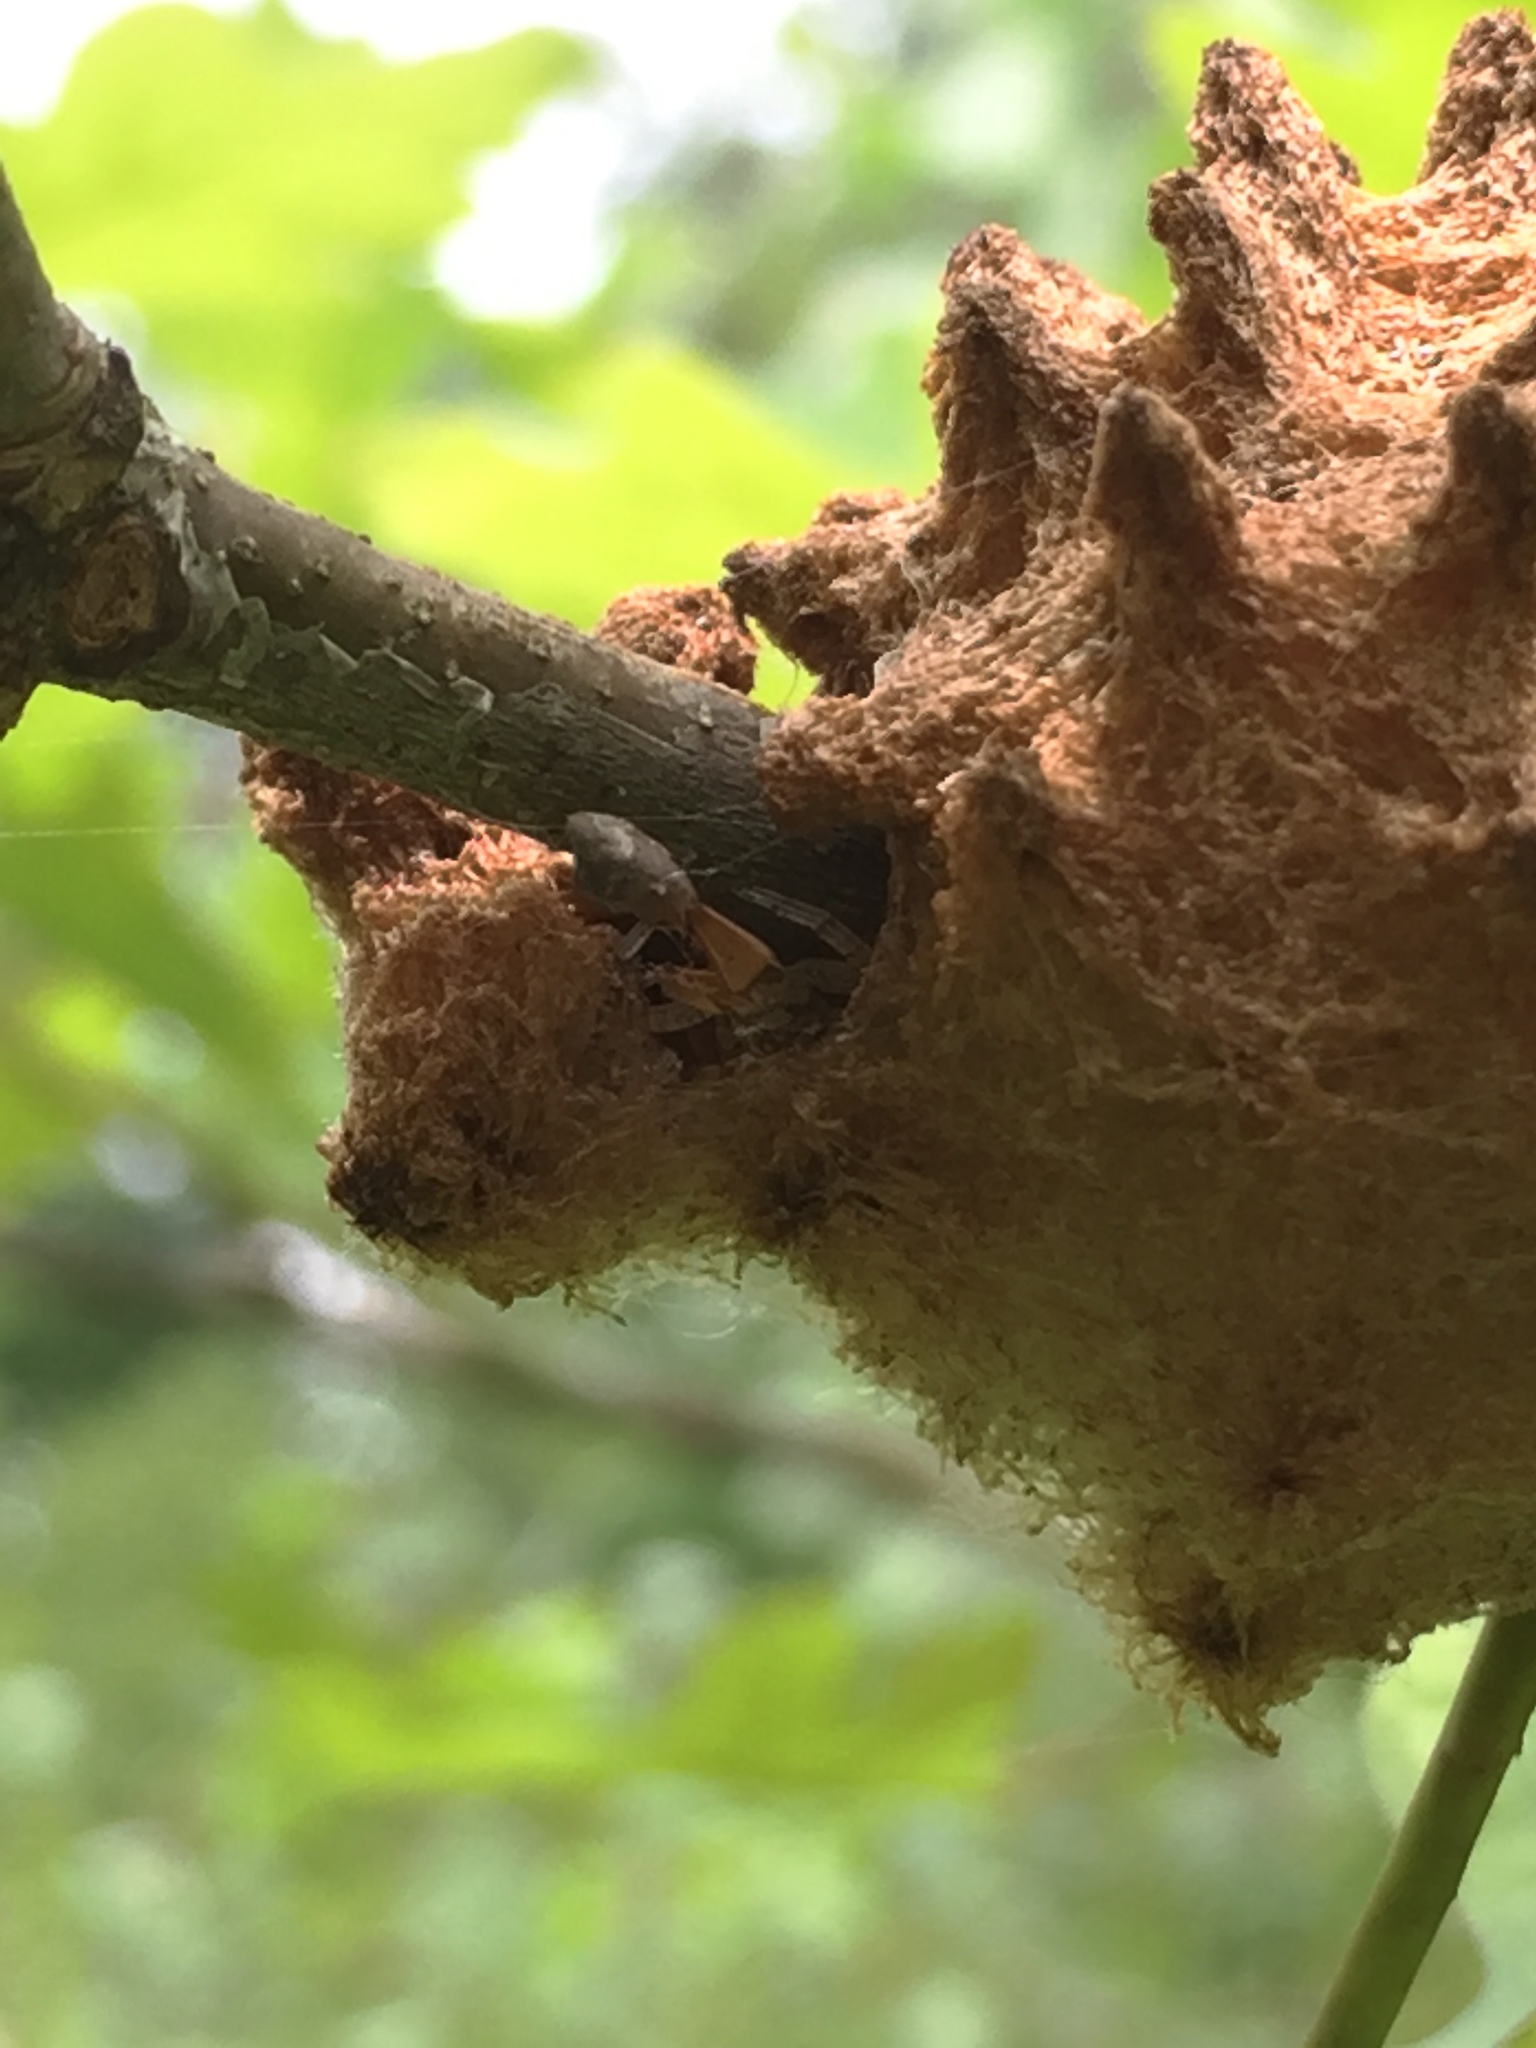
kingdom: Animalia
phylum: Arthropoda
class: Insecta
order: Hymenoptera
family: Cynipidae
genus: Callirhytis
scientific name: Callirhytis
